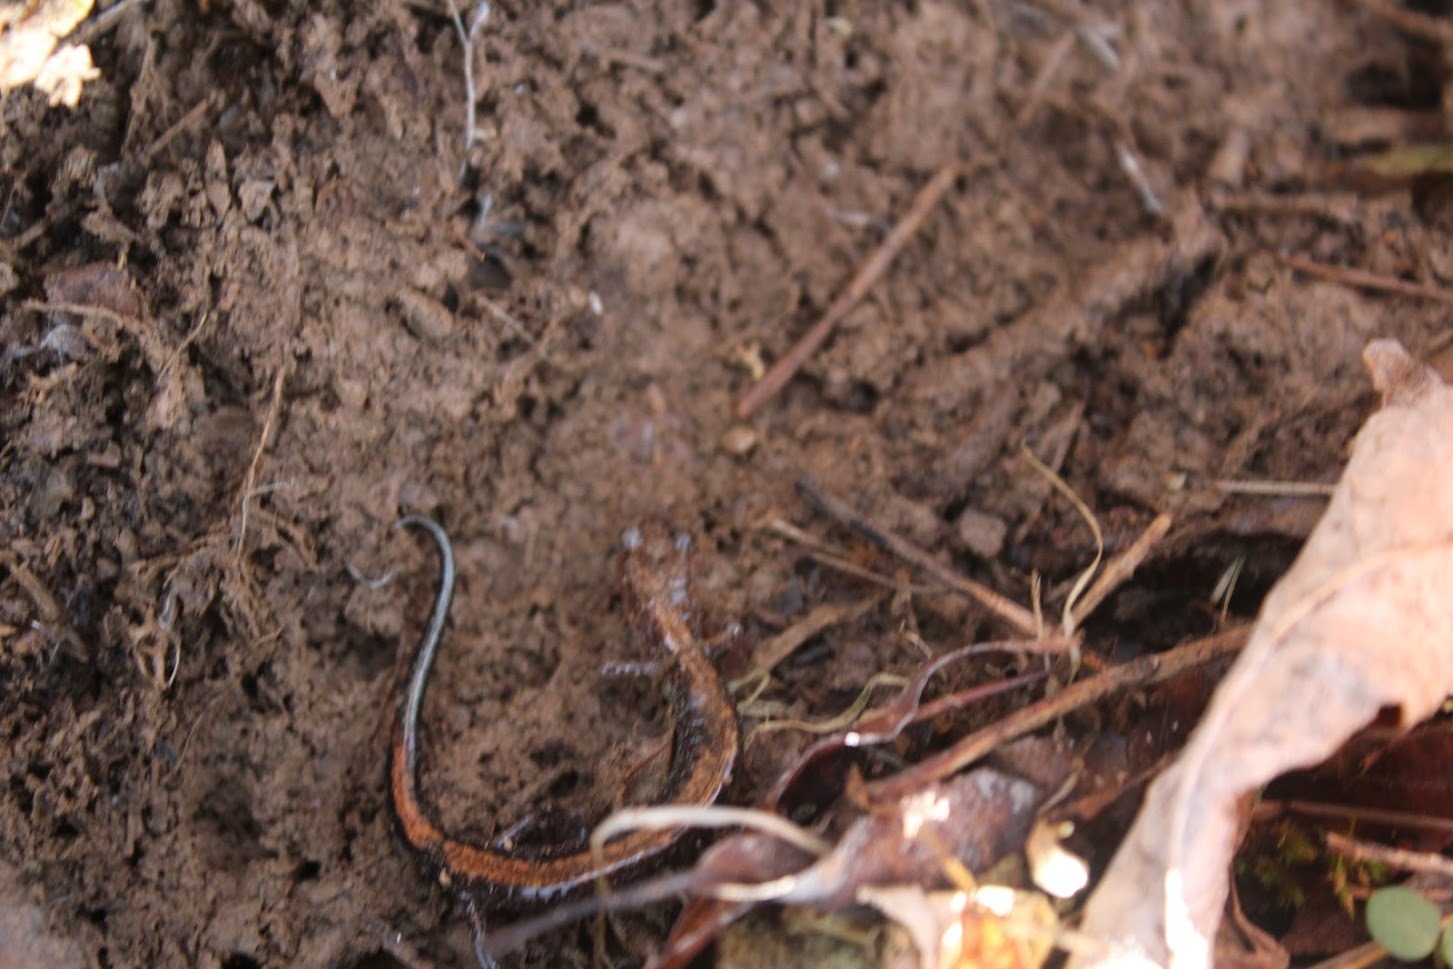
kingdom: Animalia
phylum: Chordata
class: Amphibia
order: Caudata
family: Plethodontidae
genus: Plethodon
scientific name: Plethodon cinereus
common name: Redback salamander
